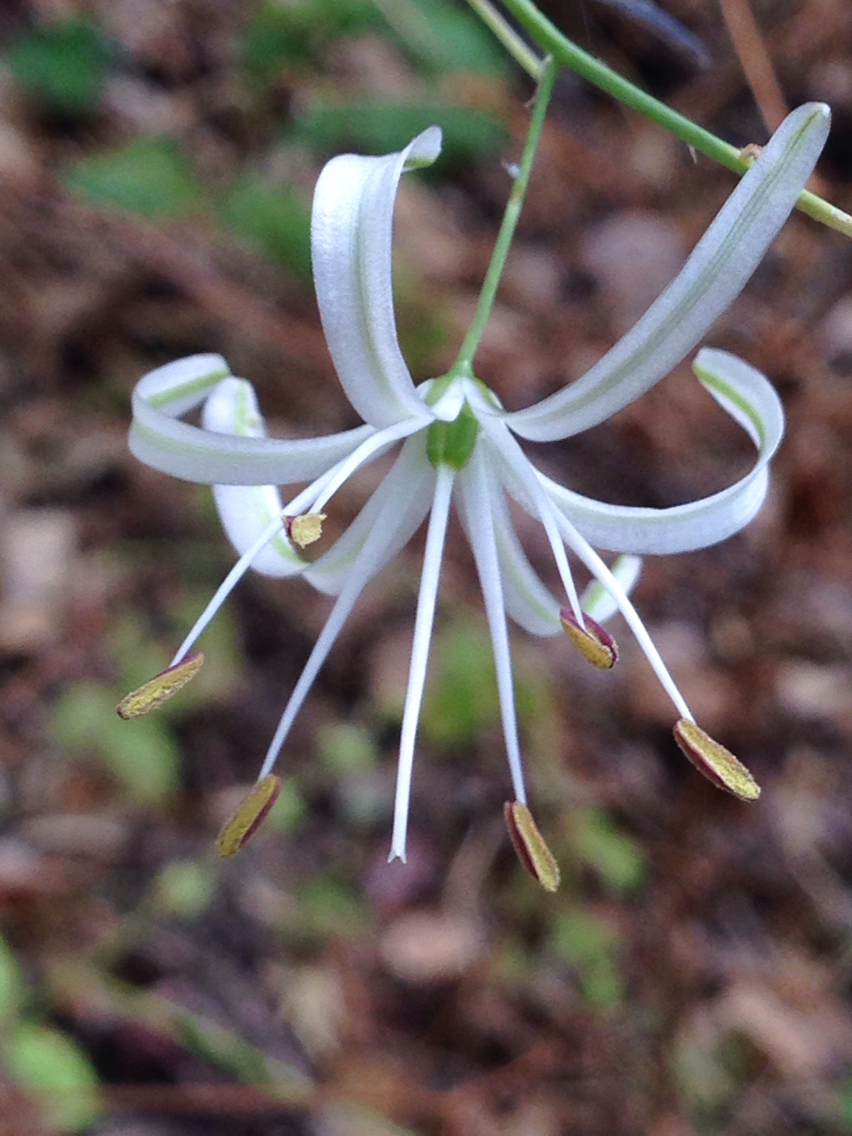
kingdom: Plantae
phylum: Tracheophyta
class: Liliopsida
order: Asparagales
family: Asparagaceae
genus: Chlorogalum
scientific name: Chlorogalum pomeridianum
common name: Amole
